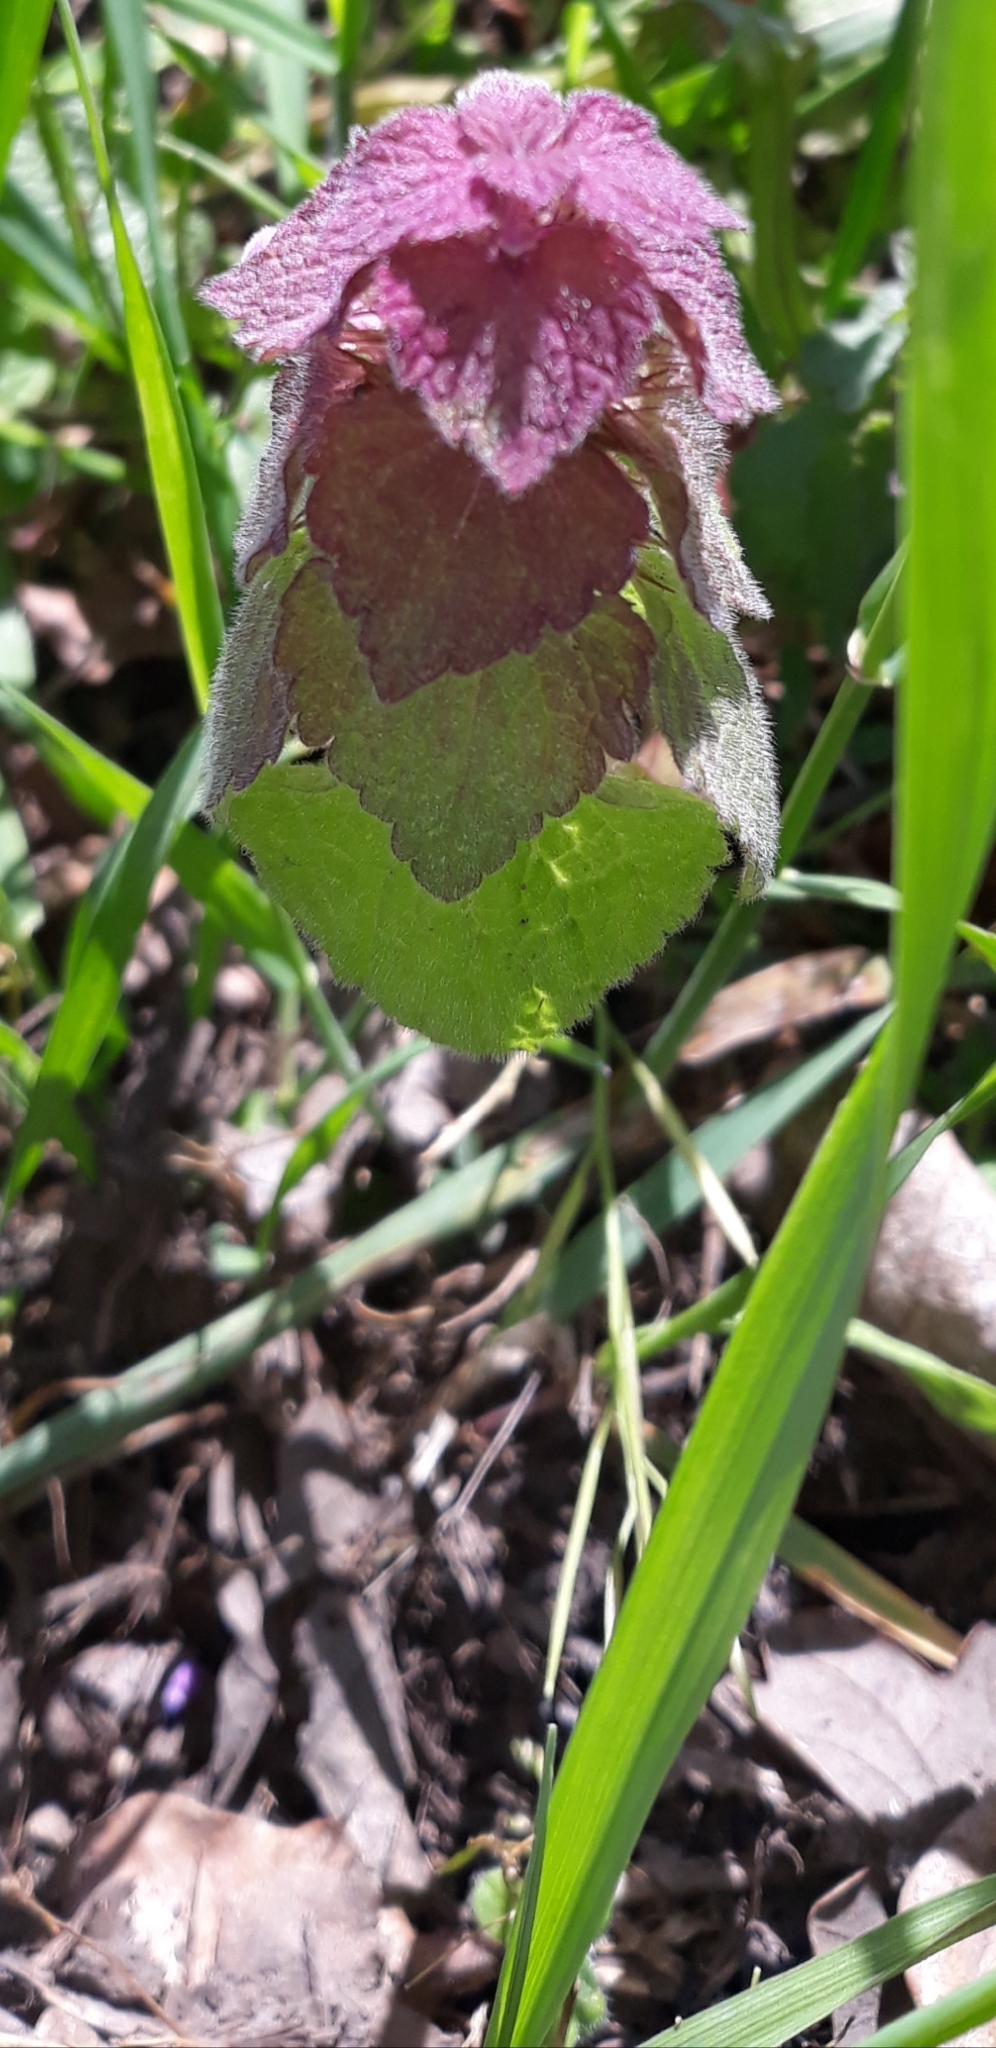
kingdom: Plantae
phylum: Tracheophyta
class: Magnoliopsida
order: Lamiales
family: Lamiaceae
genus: Lamium
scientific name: Lamium purpureum
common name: Red dead-nettle
